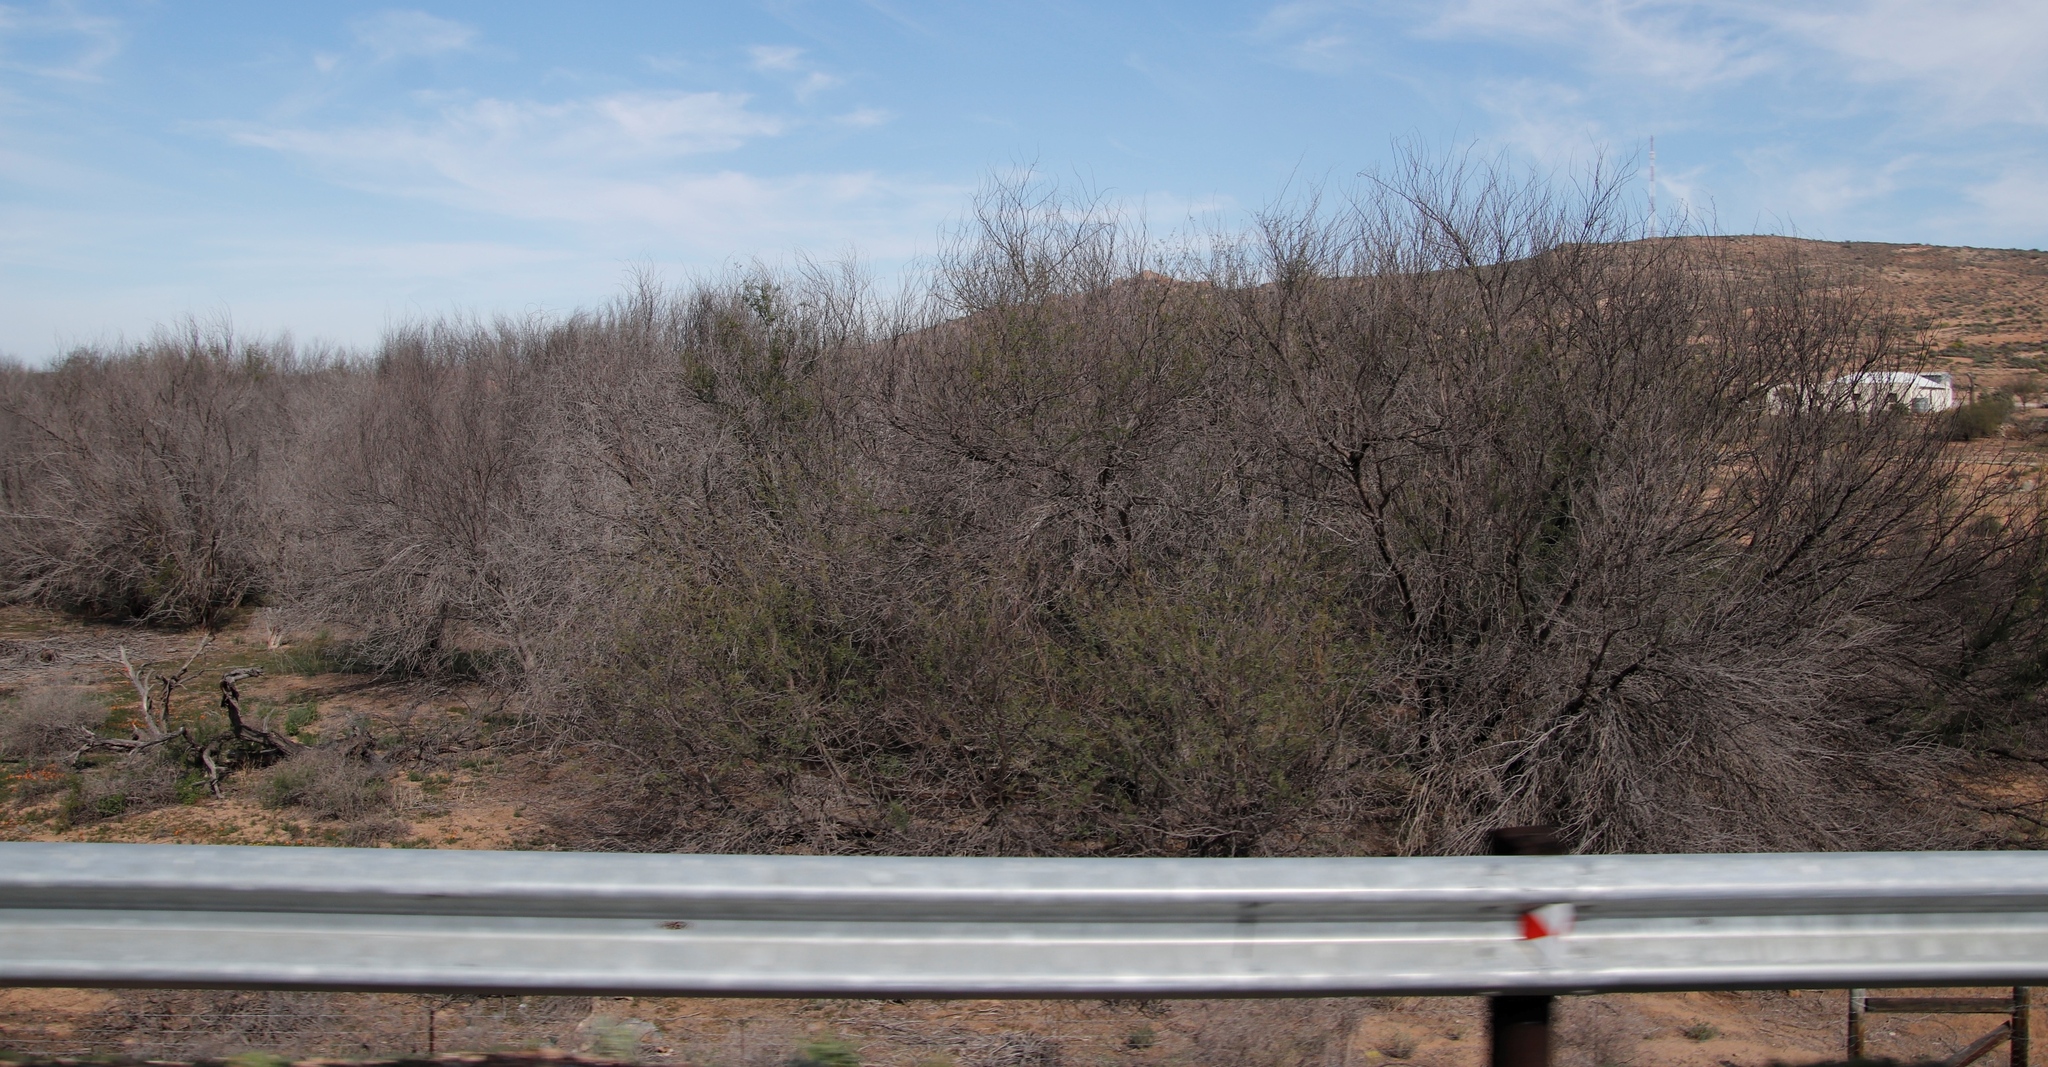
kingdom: Plantae
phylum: Tracheophyta
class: Magnoliopsida
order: Fabales
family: Fabaceae
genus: Vachellia
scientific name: Vachellia karroo
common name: Sweet thorn
